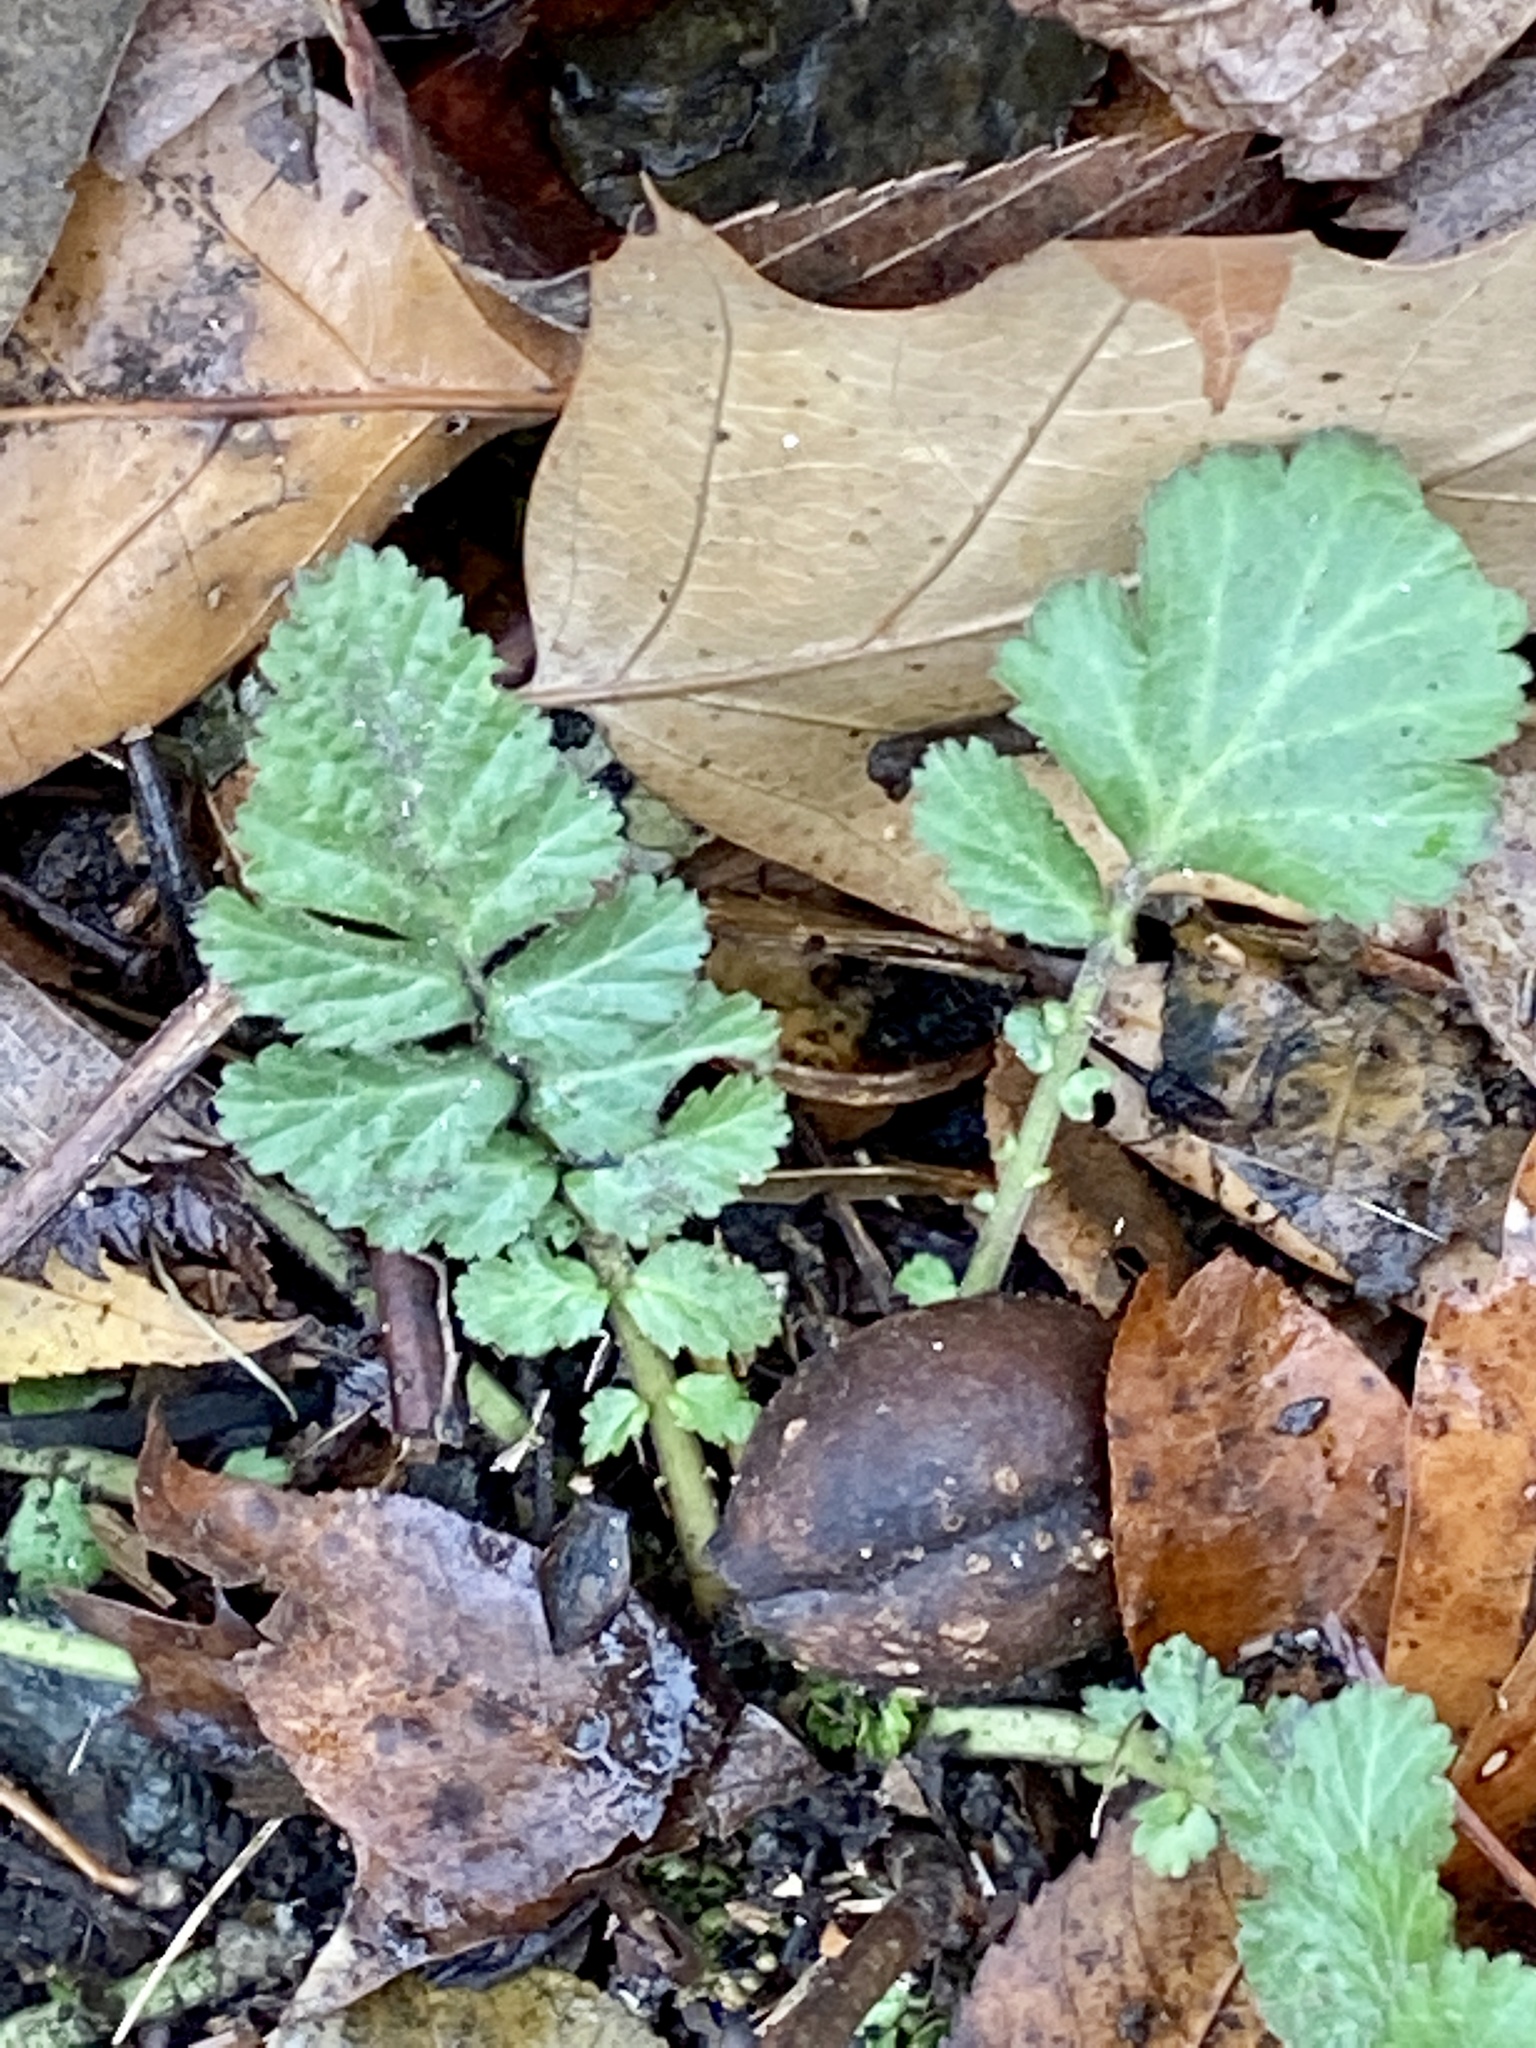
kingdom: Plantae
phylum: Tracheophyta
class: Magnoliopsida
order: Rosales
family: Rosaceae
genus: Geum
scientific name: Geum canadense
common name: White avens
